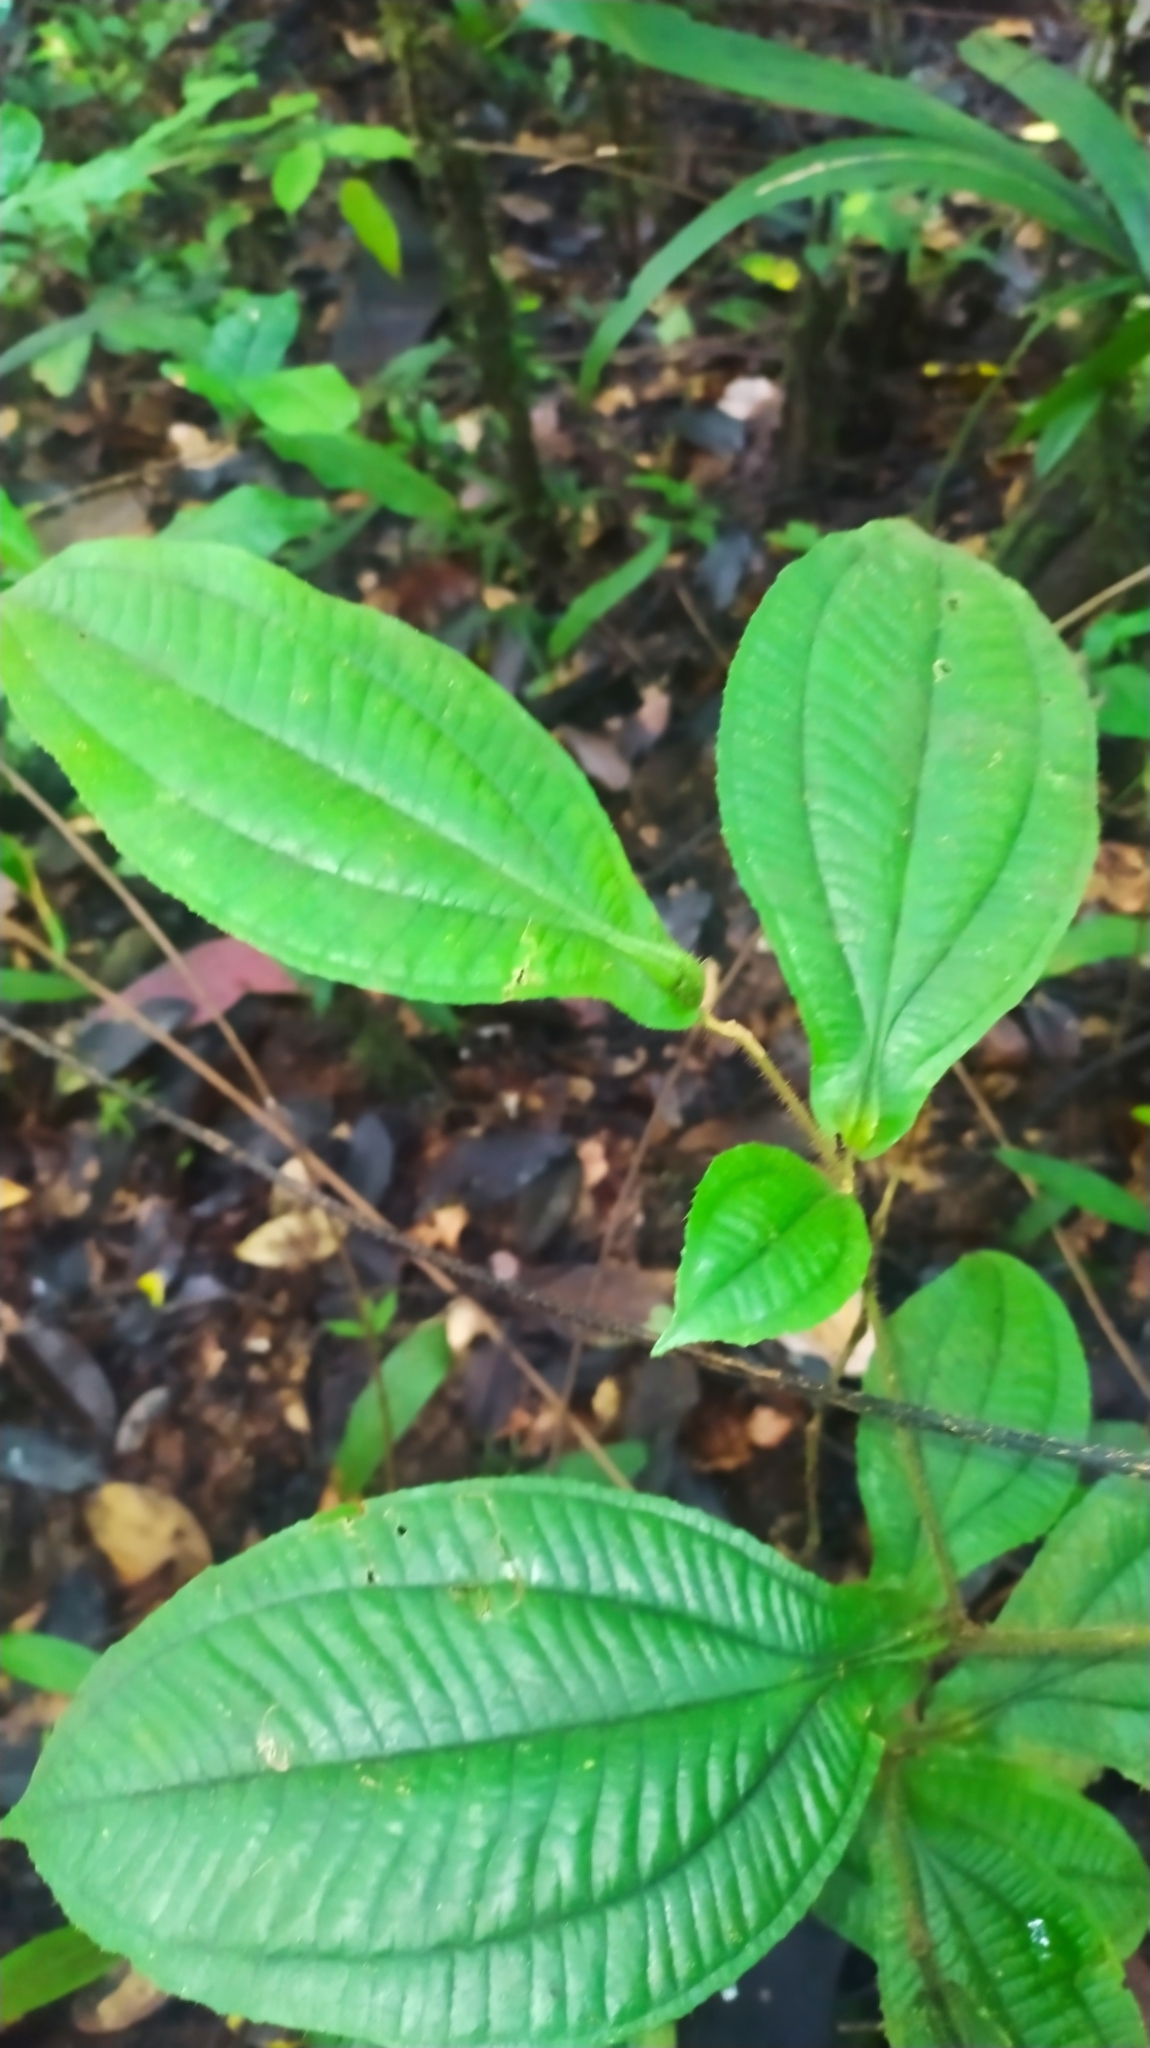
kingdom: Plantae
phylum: Tracheophyta
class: Magnoliopsida
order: Myrtales
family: Melastomataceae
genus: Miconia
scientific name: Miconia mayeta
